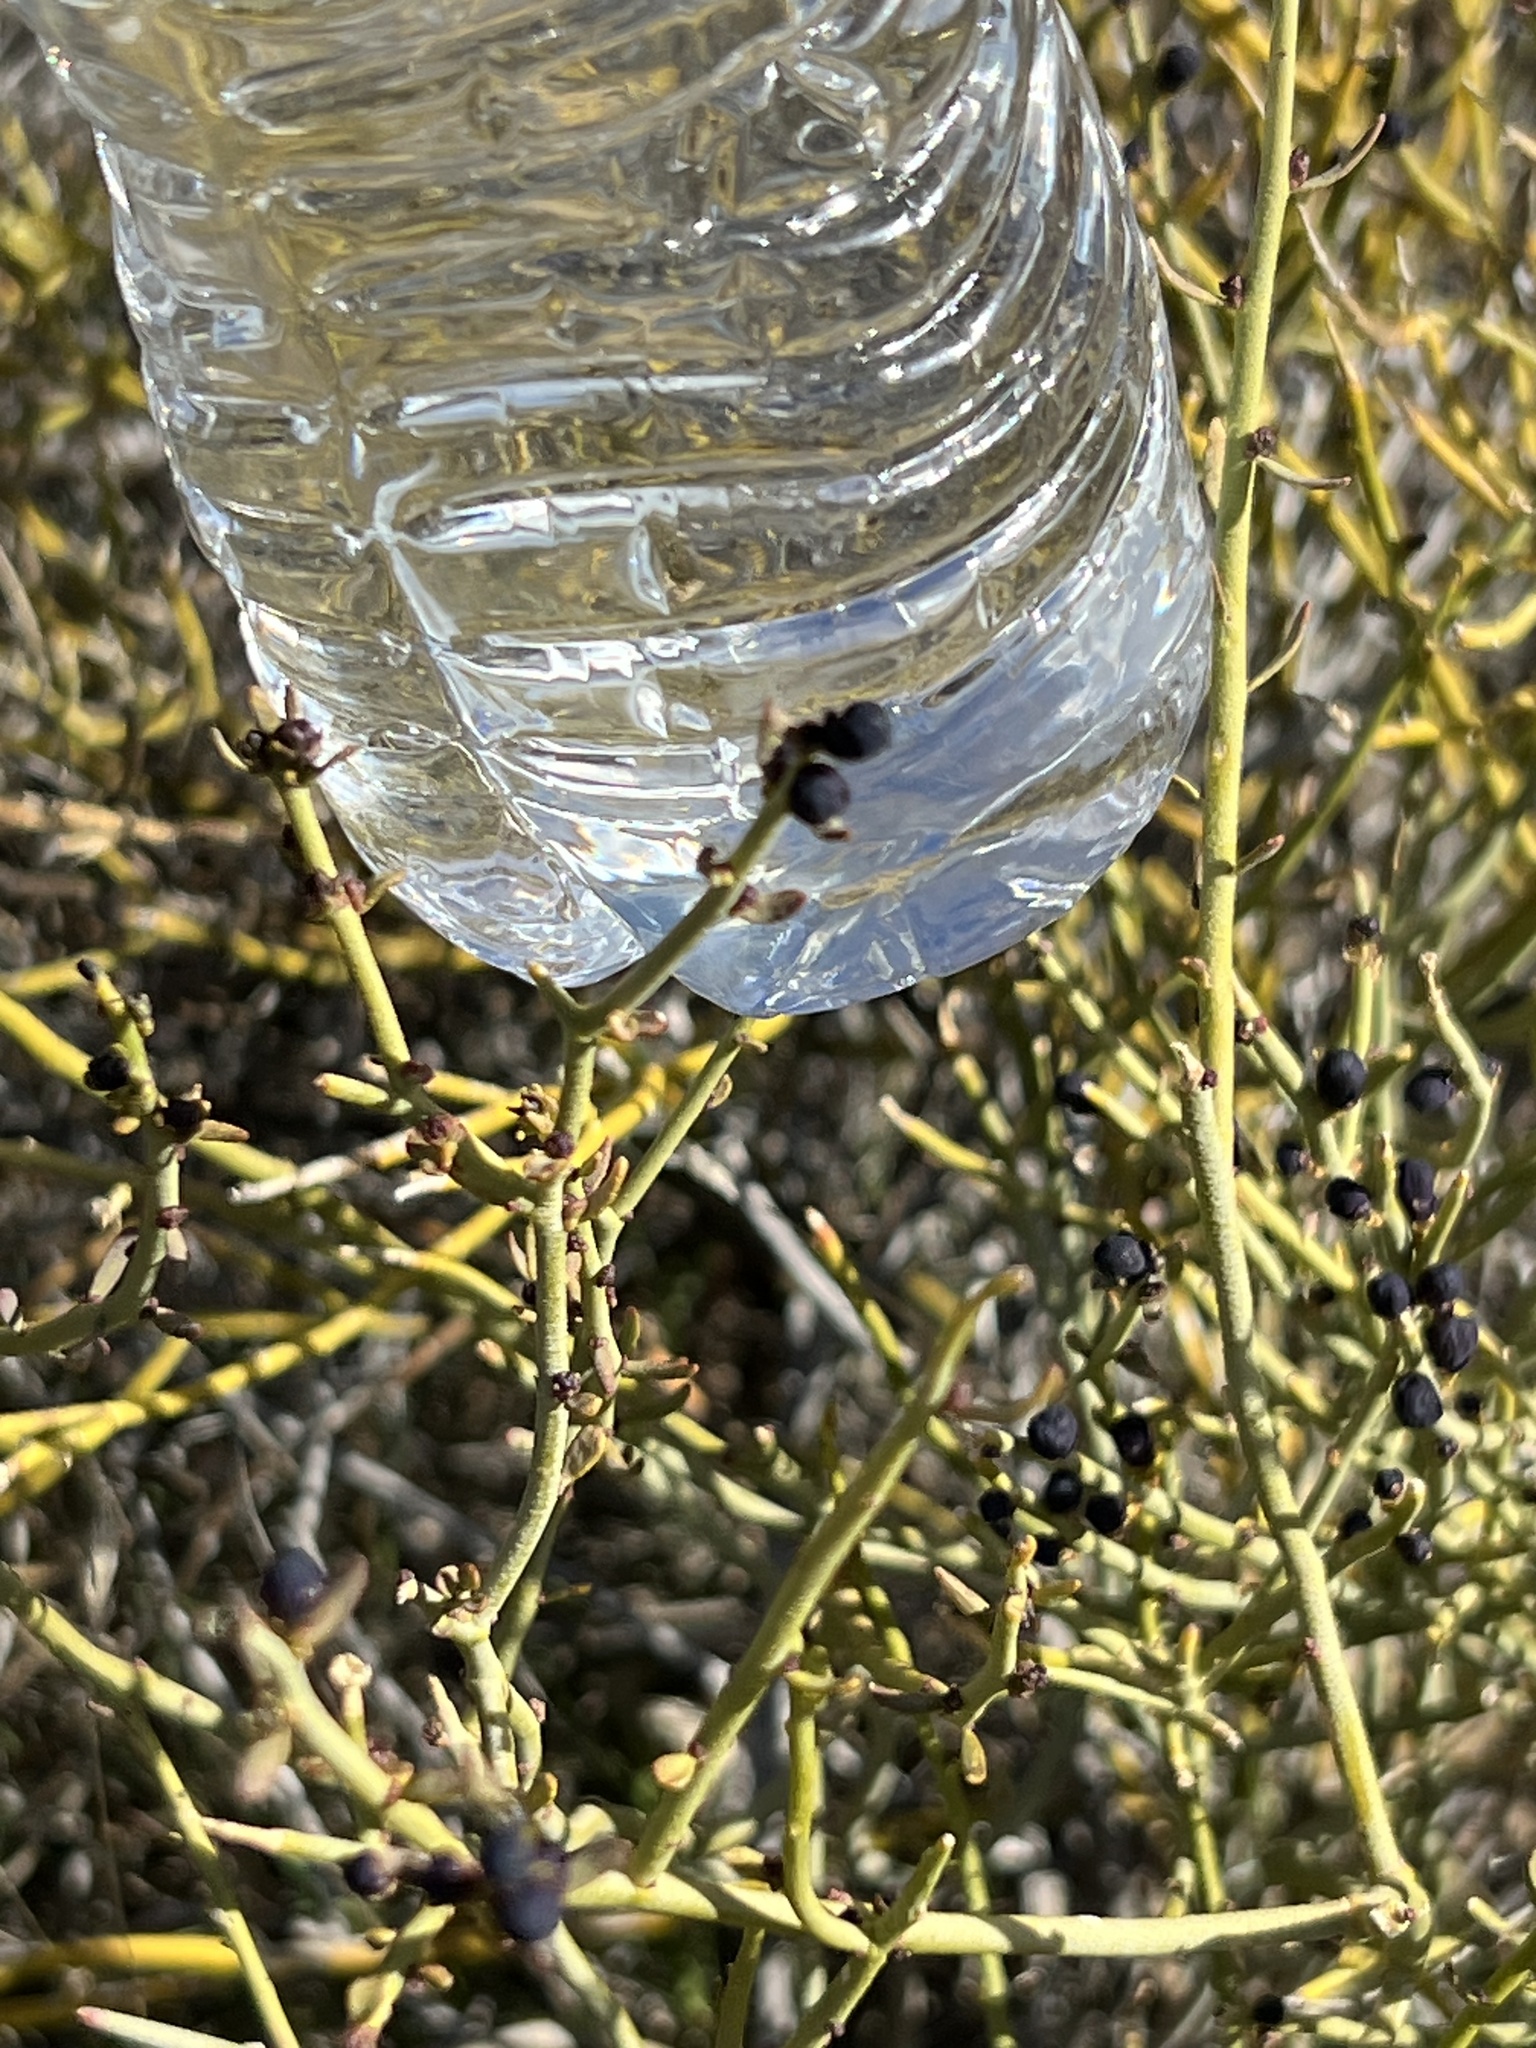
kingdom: Plantae
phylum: Tracheophyta
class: Magnoliopsida
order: Sapindales
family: Rutaceae
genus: Thamnosma
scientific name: Thamnosma montana
